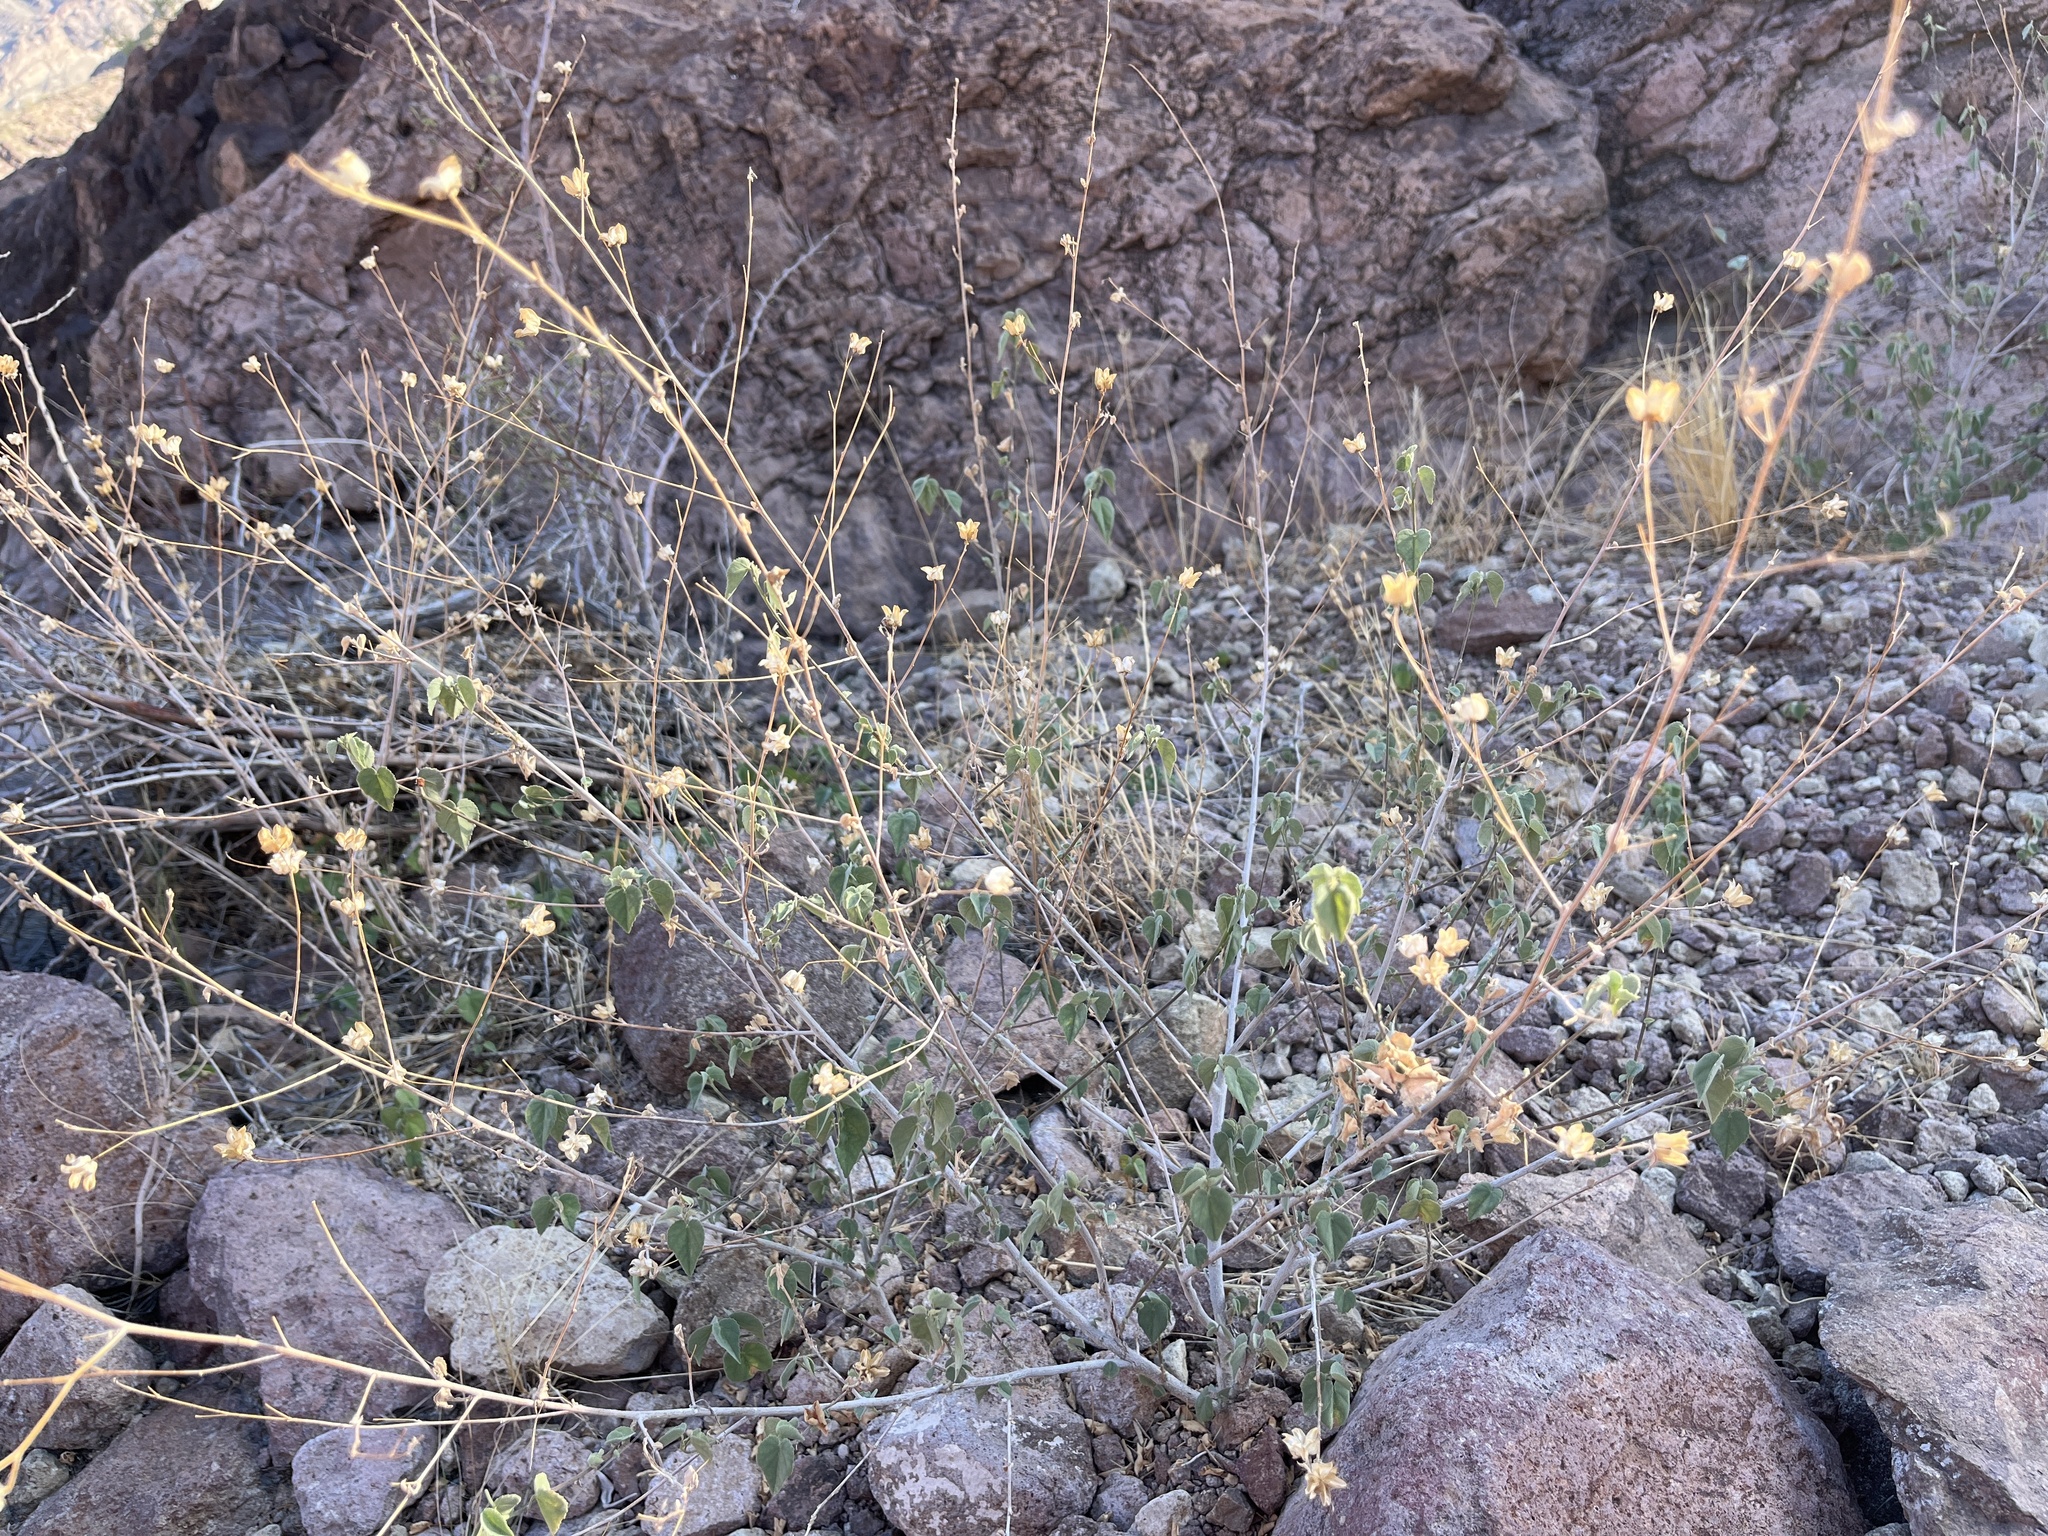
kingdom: Plantae
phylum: Tracheophyta
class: Magnoliopsida
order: Malvales
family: Malvaceae
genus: Abutilon
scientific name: Abutilon incanum
